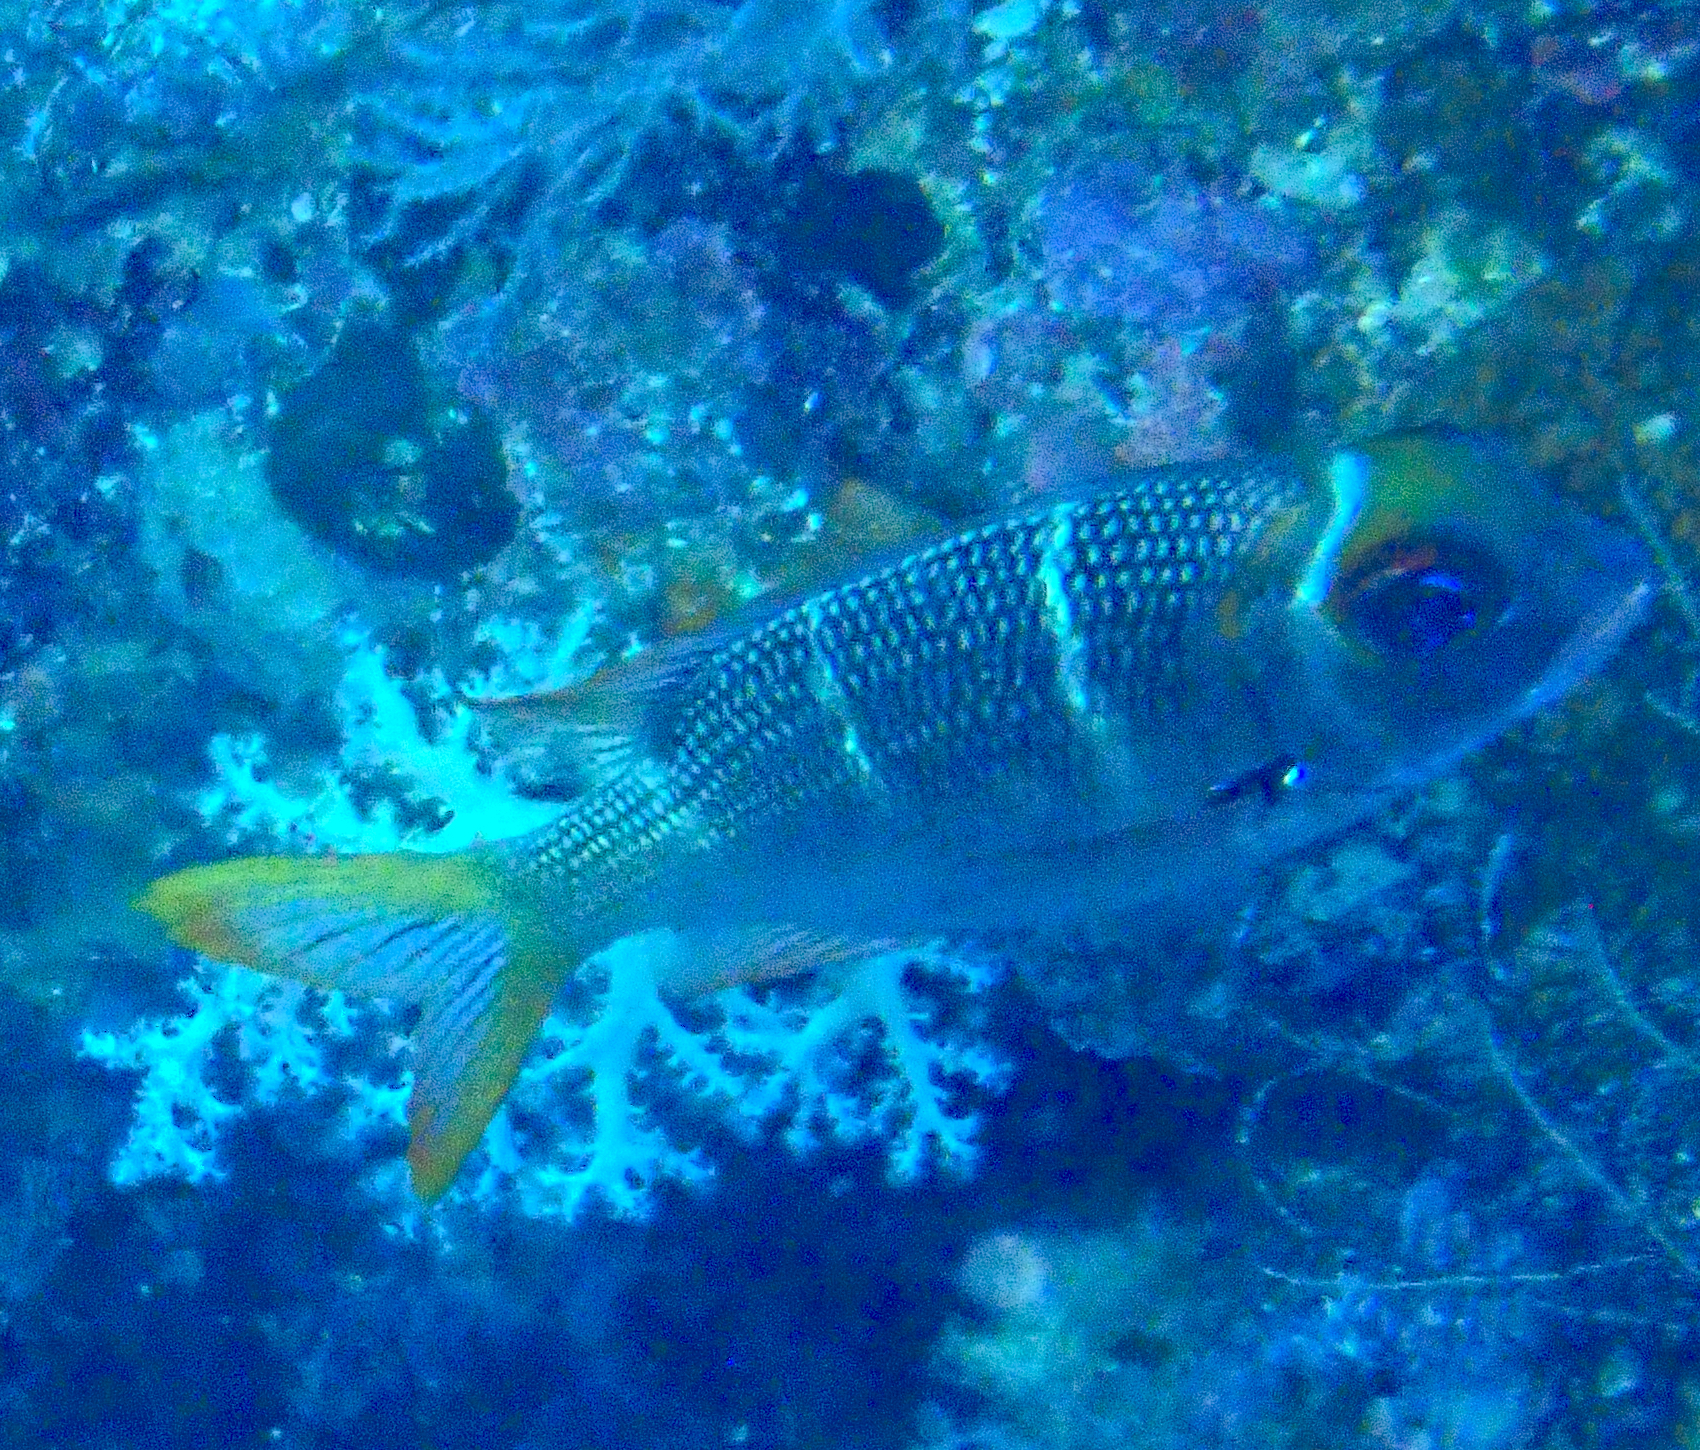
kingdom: Animalia
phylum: Chordata
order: Perciformes
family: Lethrinidae
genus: Monotaxis
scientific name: Monotaxis heterodon
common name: Redfin emperor
